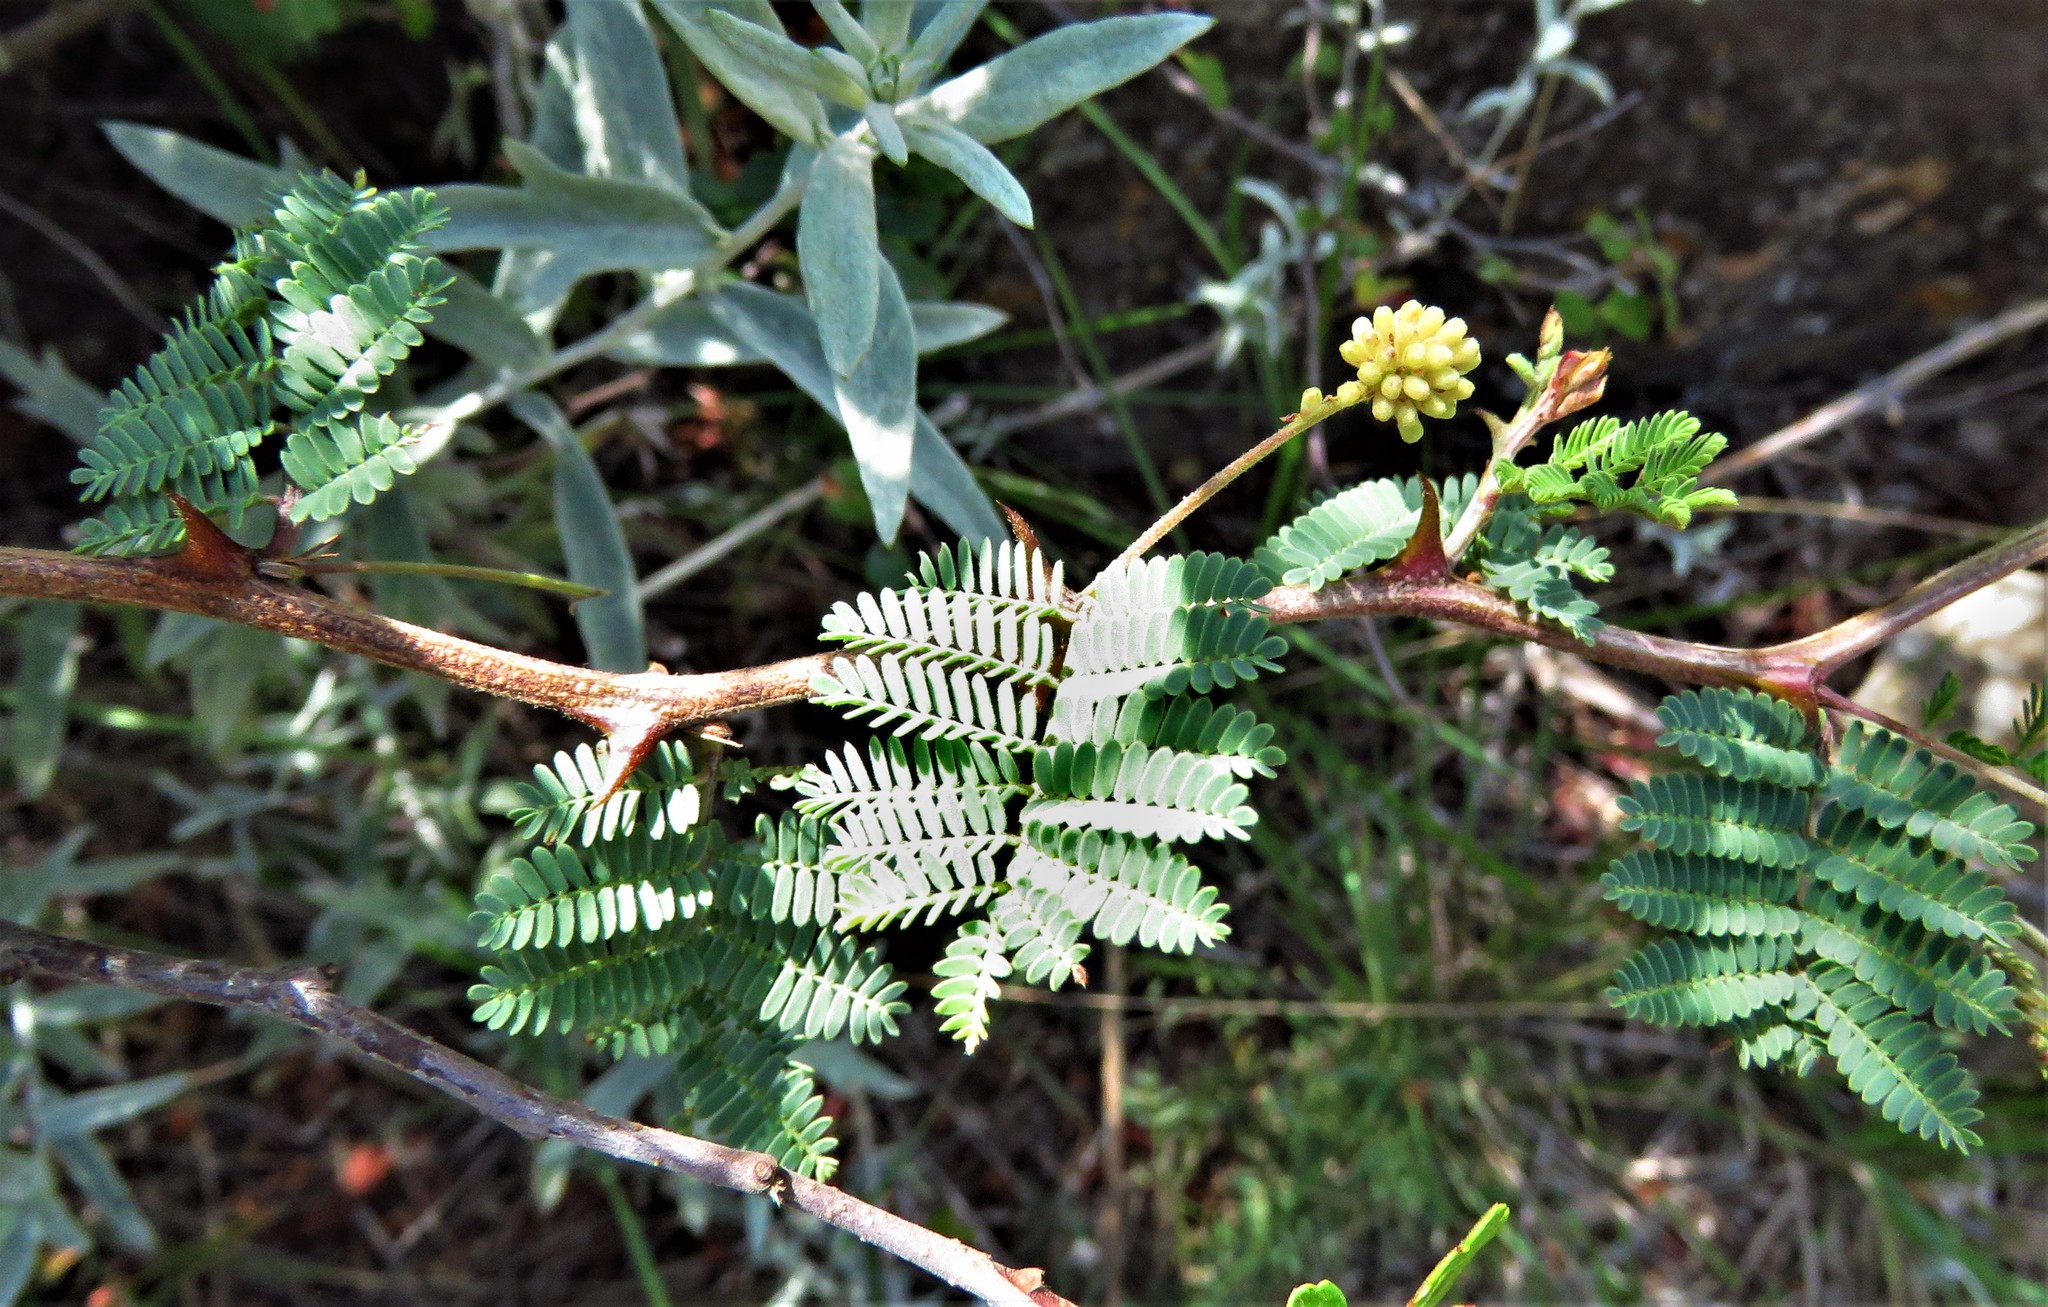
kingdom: Plantae
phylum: Tracheophyta
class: Magnoliopsida
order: Fabales
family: Fabaceae
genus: Mimosa
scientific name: Mimosa aculeaticarpa
